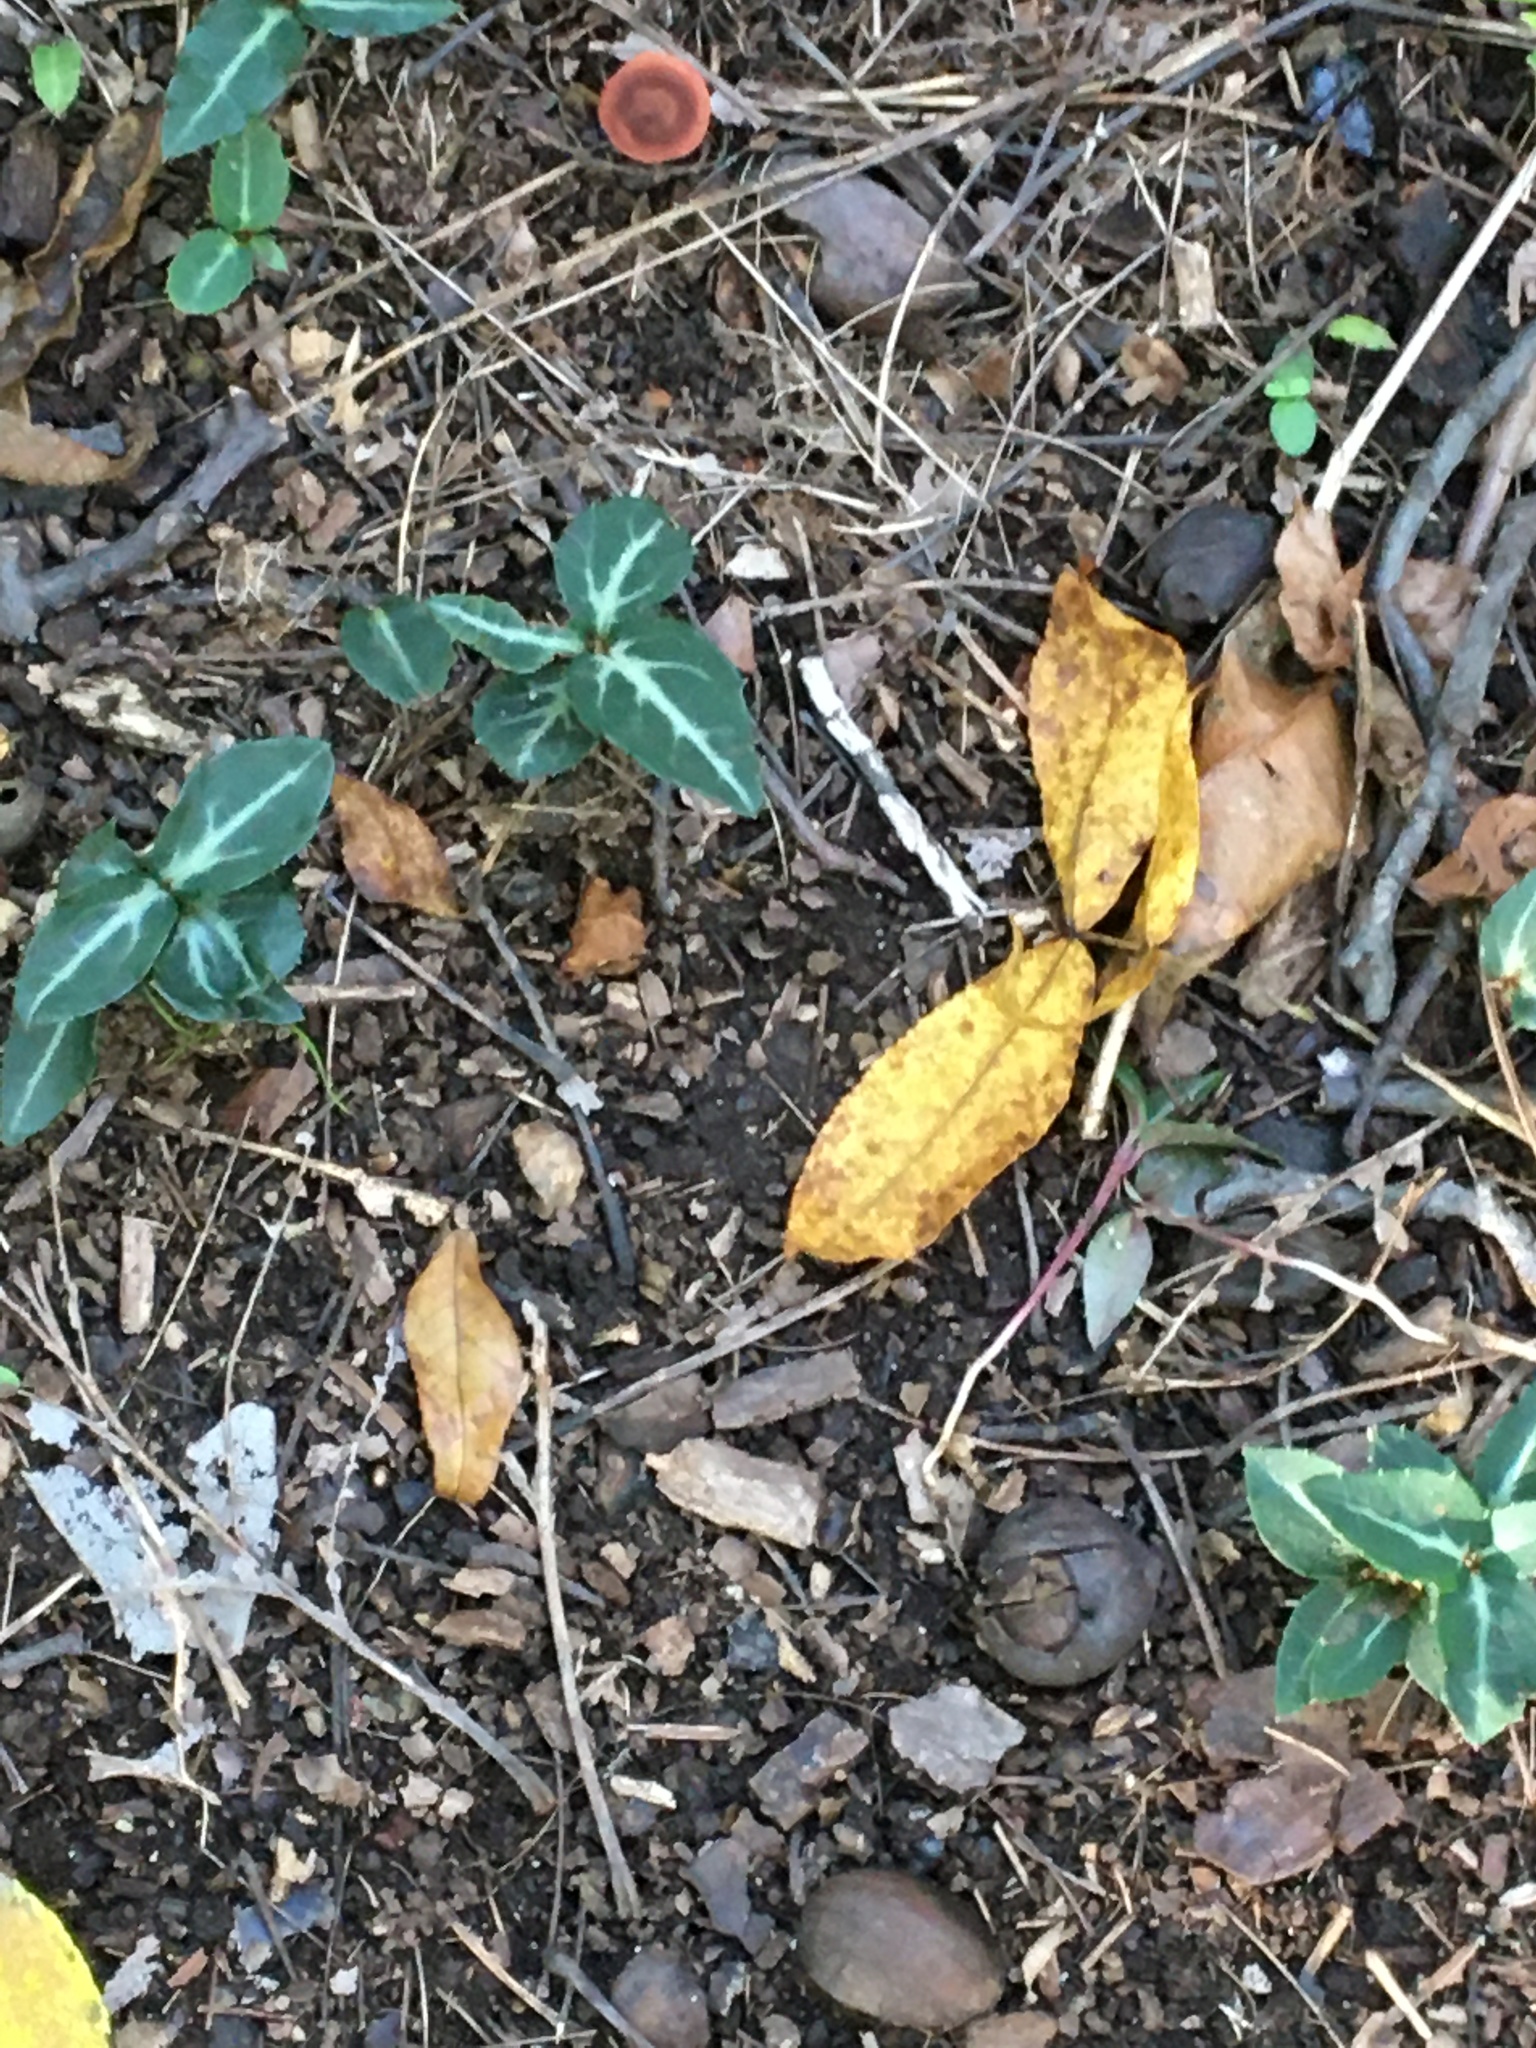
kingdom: Plantae
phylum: Tracheophyta
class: Magnoliopsida
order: Ericales
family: Ericaceae
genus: Chimaphila
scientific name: Chimaphila maculata
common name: Spotted pipsissewa
